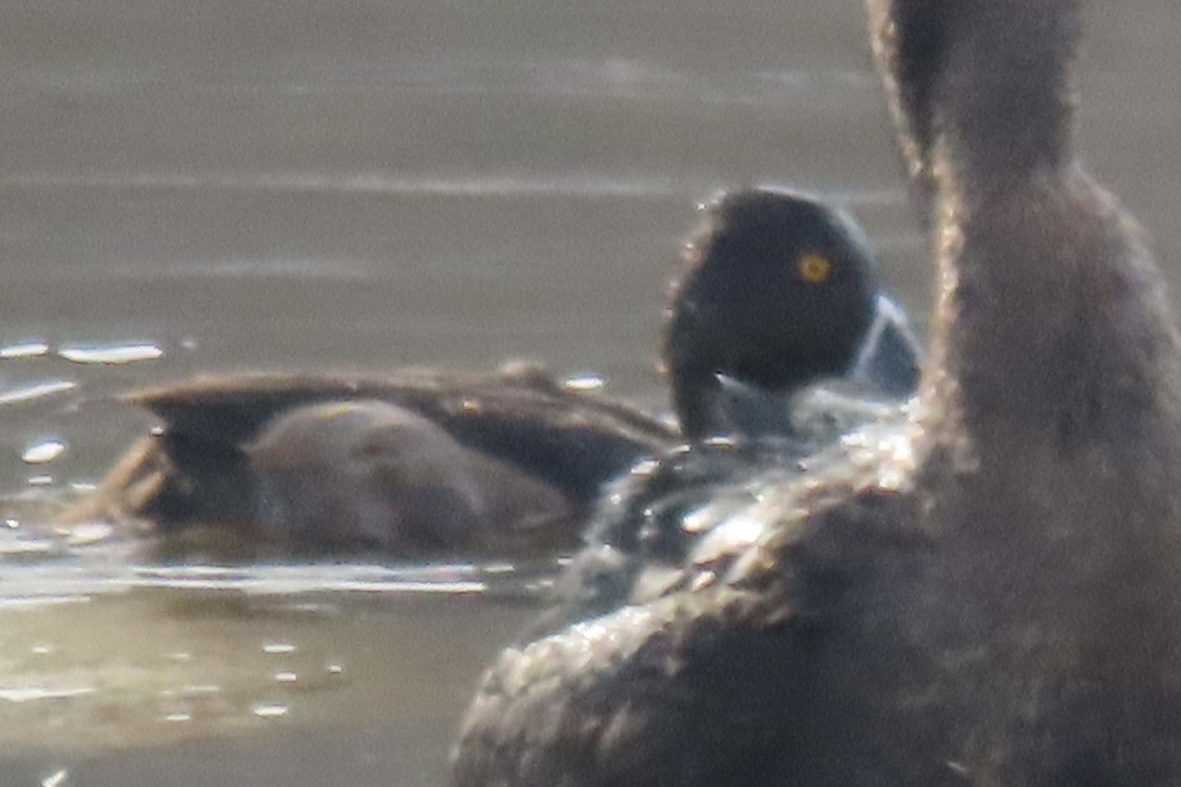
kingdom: Animalia
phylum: Chordata
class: Aves
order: Anseriformes
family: Anatidae
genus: Aythya
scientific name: Aythya collaris
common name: Ring-necked duck
